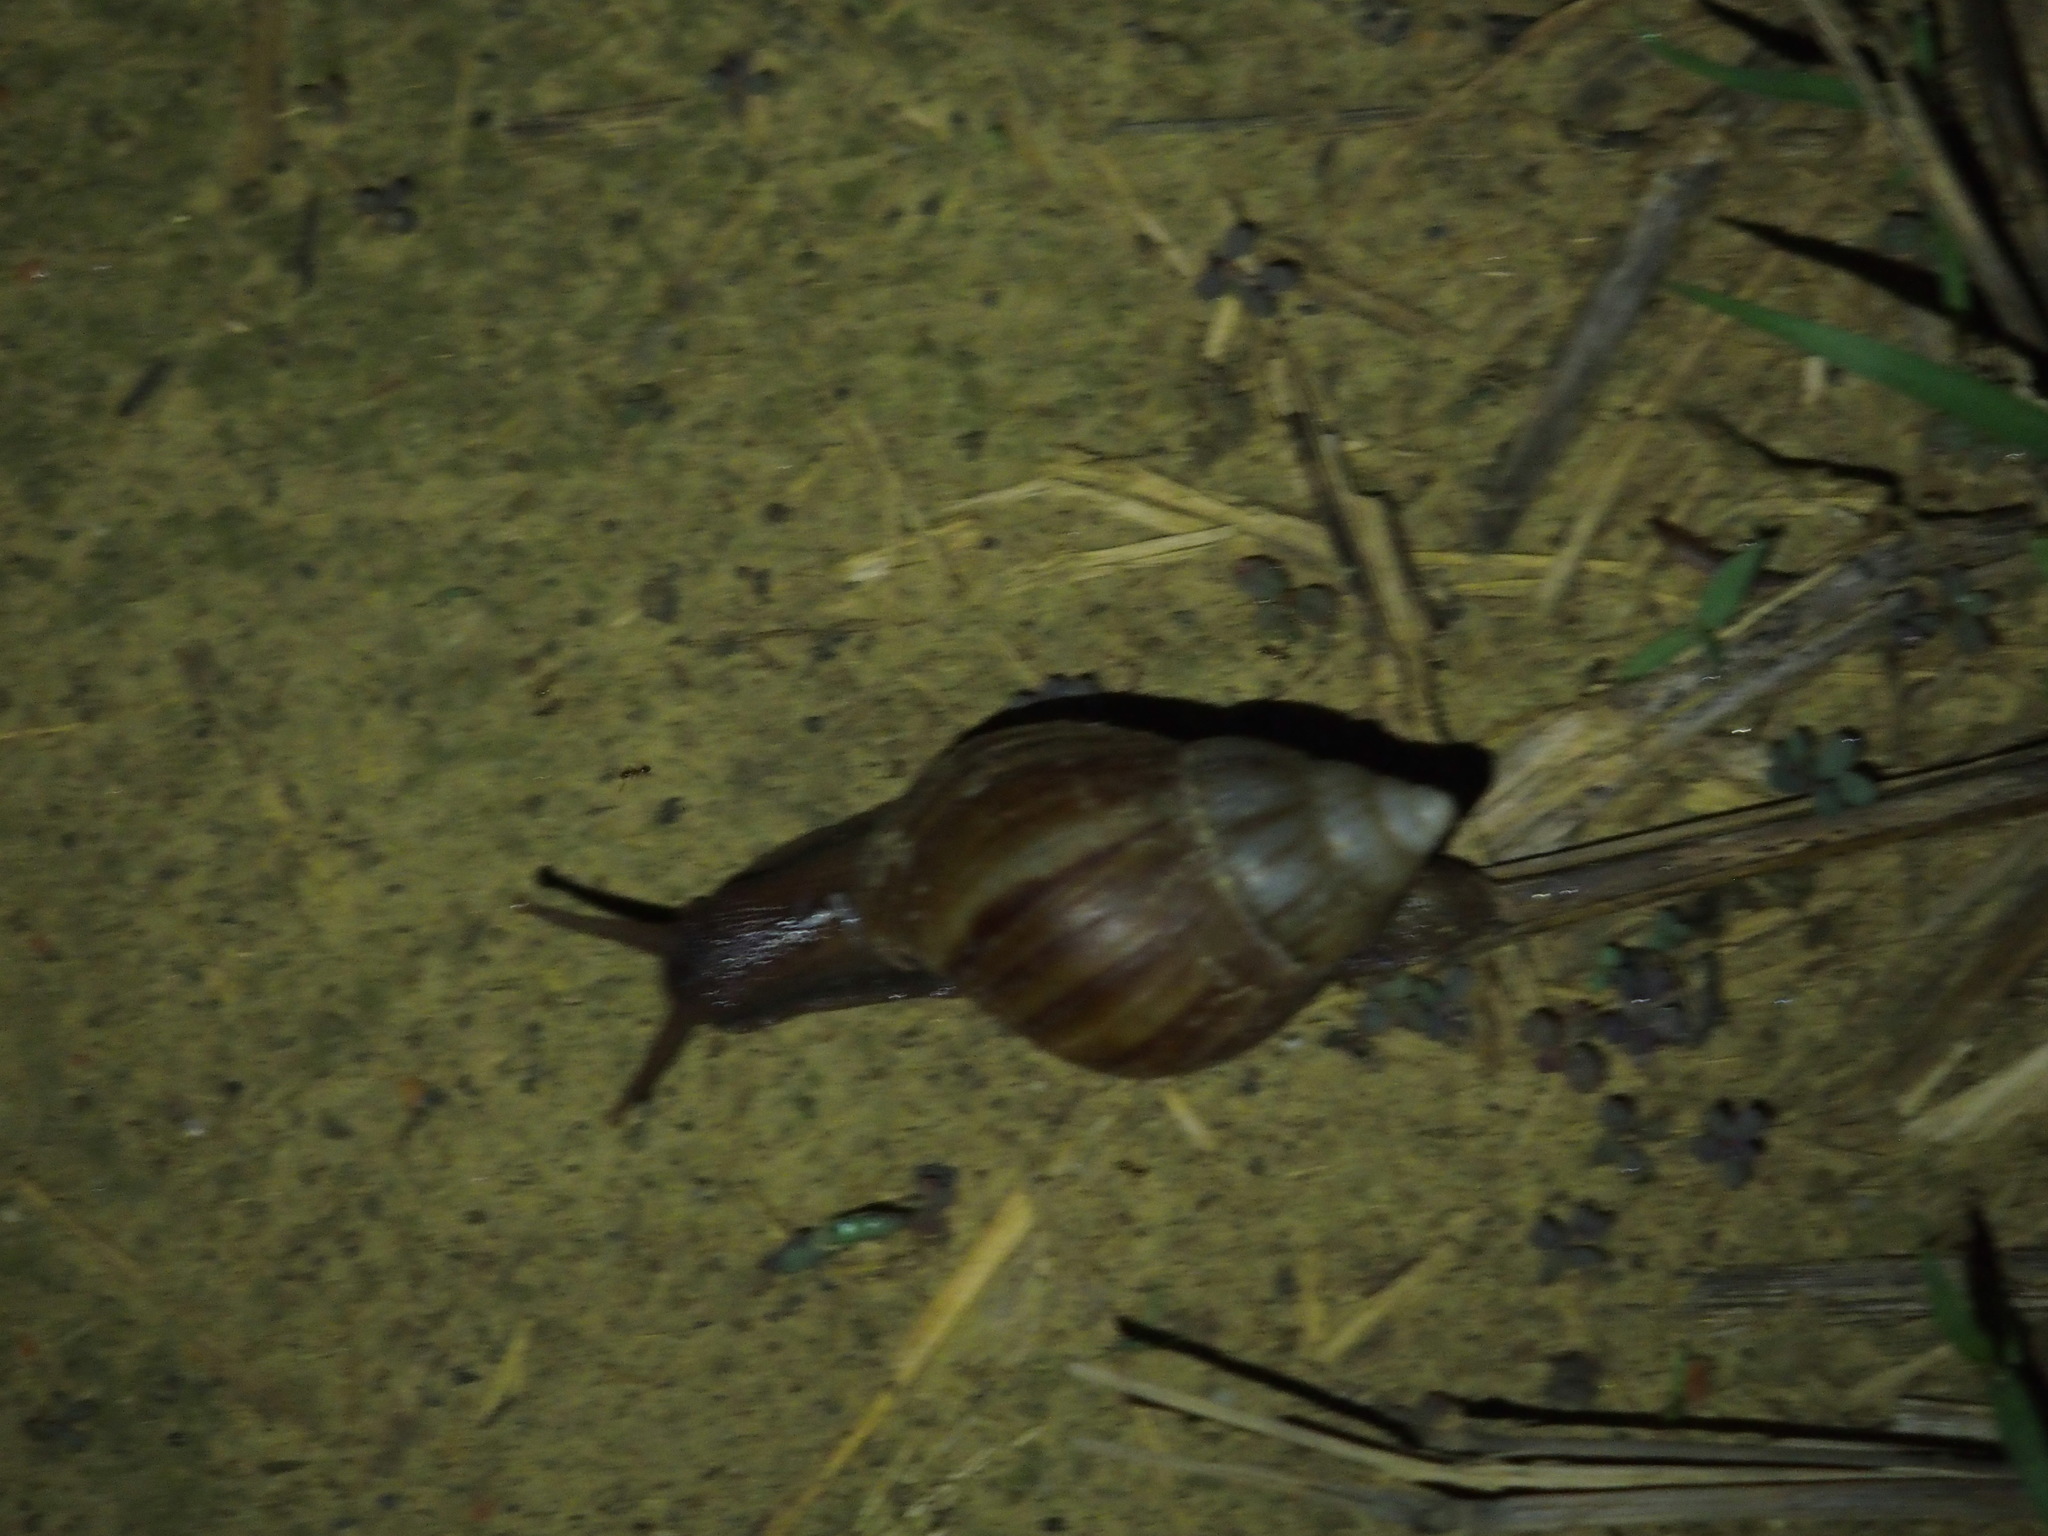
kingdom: Animalia
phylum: Mollusca
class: Gastropoda
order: Stylommatophora
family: Achatinidae
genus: Lissachatina
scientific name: Lissachatina fulica
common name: Giant african snail
